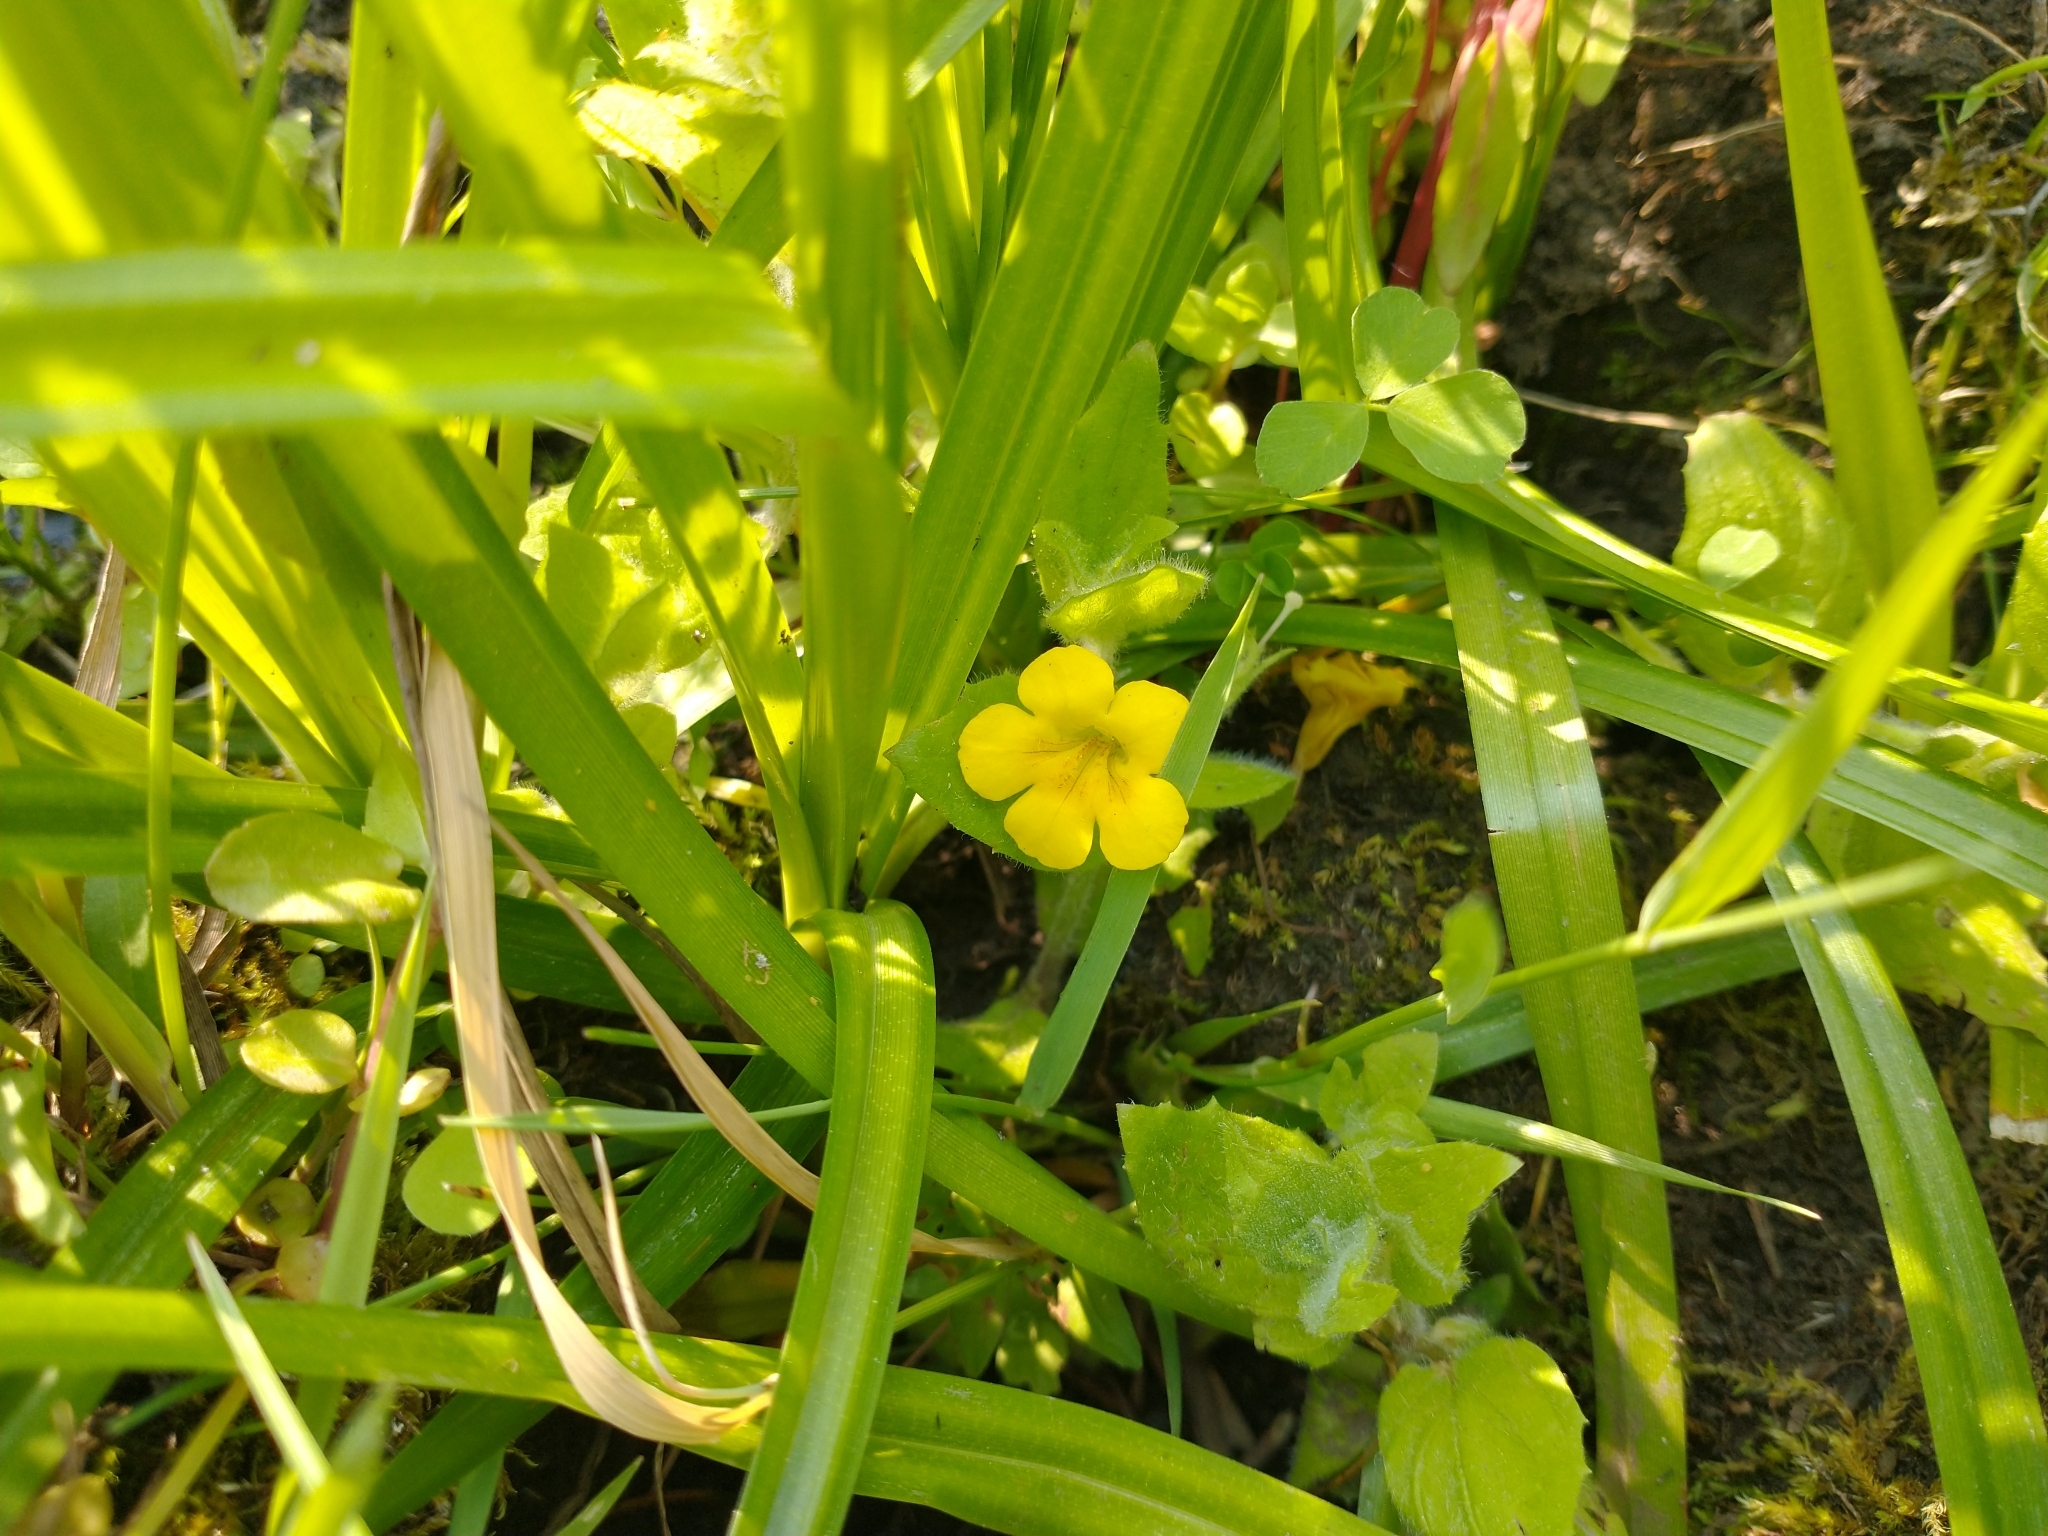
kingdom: Plantae
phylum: Tracheophyta
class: Magnoliopsida
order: Lamiales
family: Phrymaceae
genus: Erythranthe
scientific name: Erythranthe moschata
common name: Muskflower
